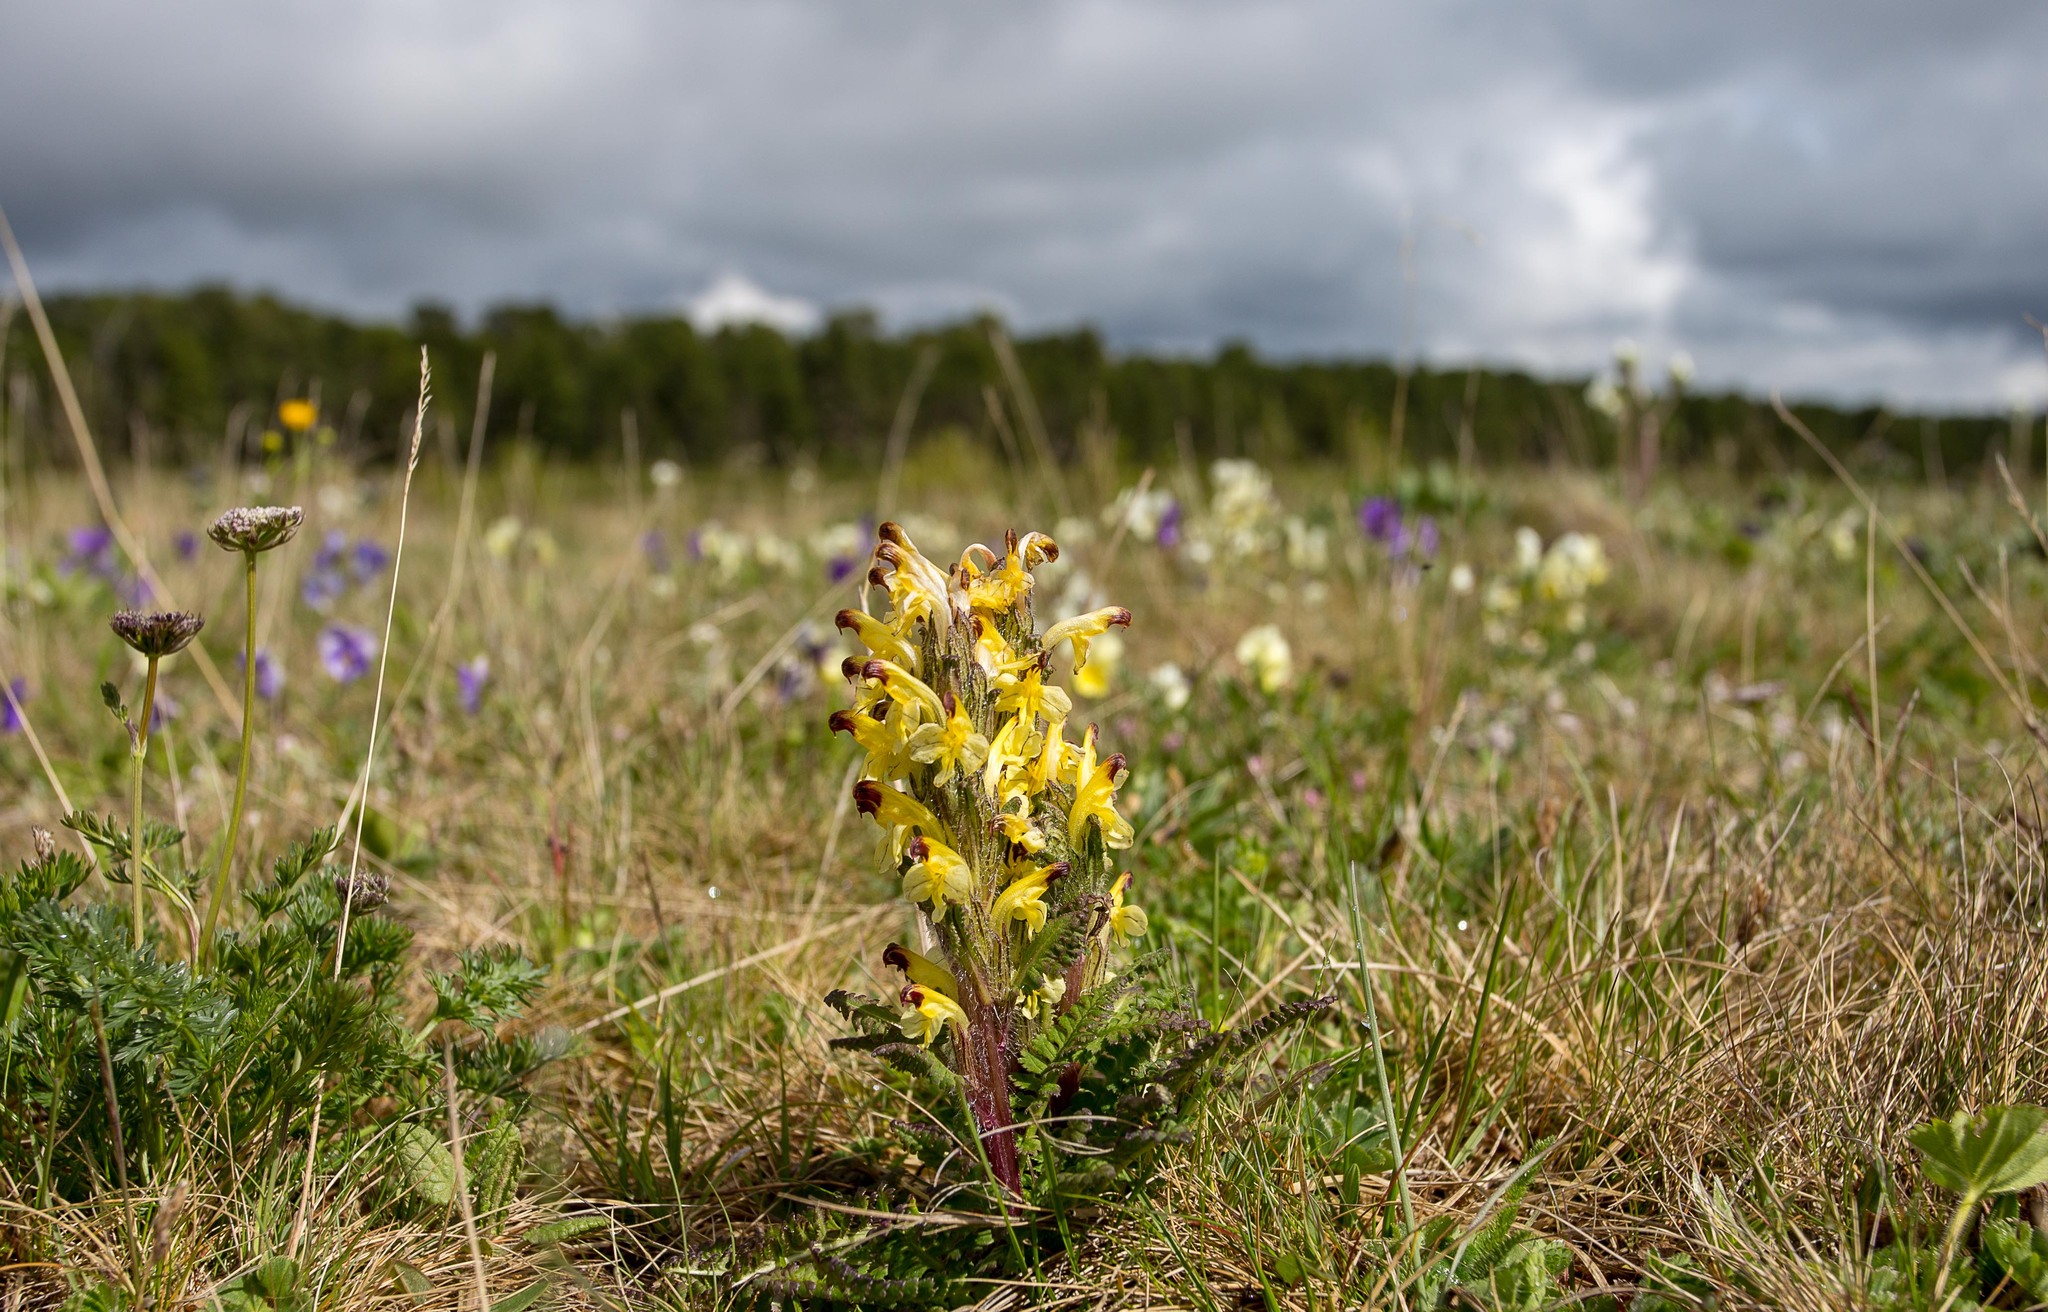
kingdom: Plantae
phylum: Tracheophyta
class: Magnoliopsida
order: Lamiales
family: Orobanchaceae
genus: Pedicularis
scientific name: Pedicularis oederi
